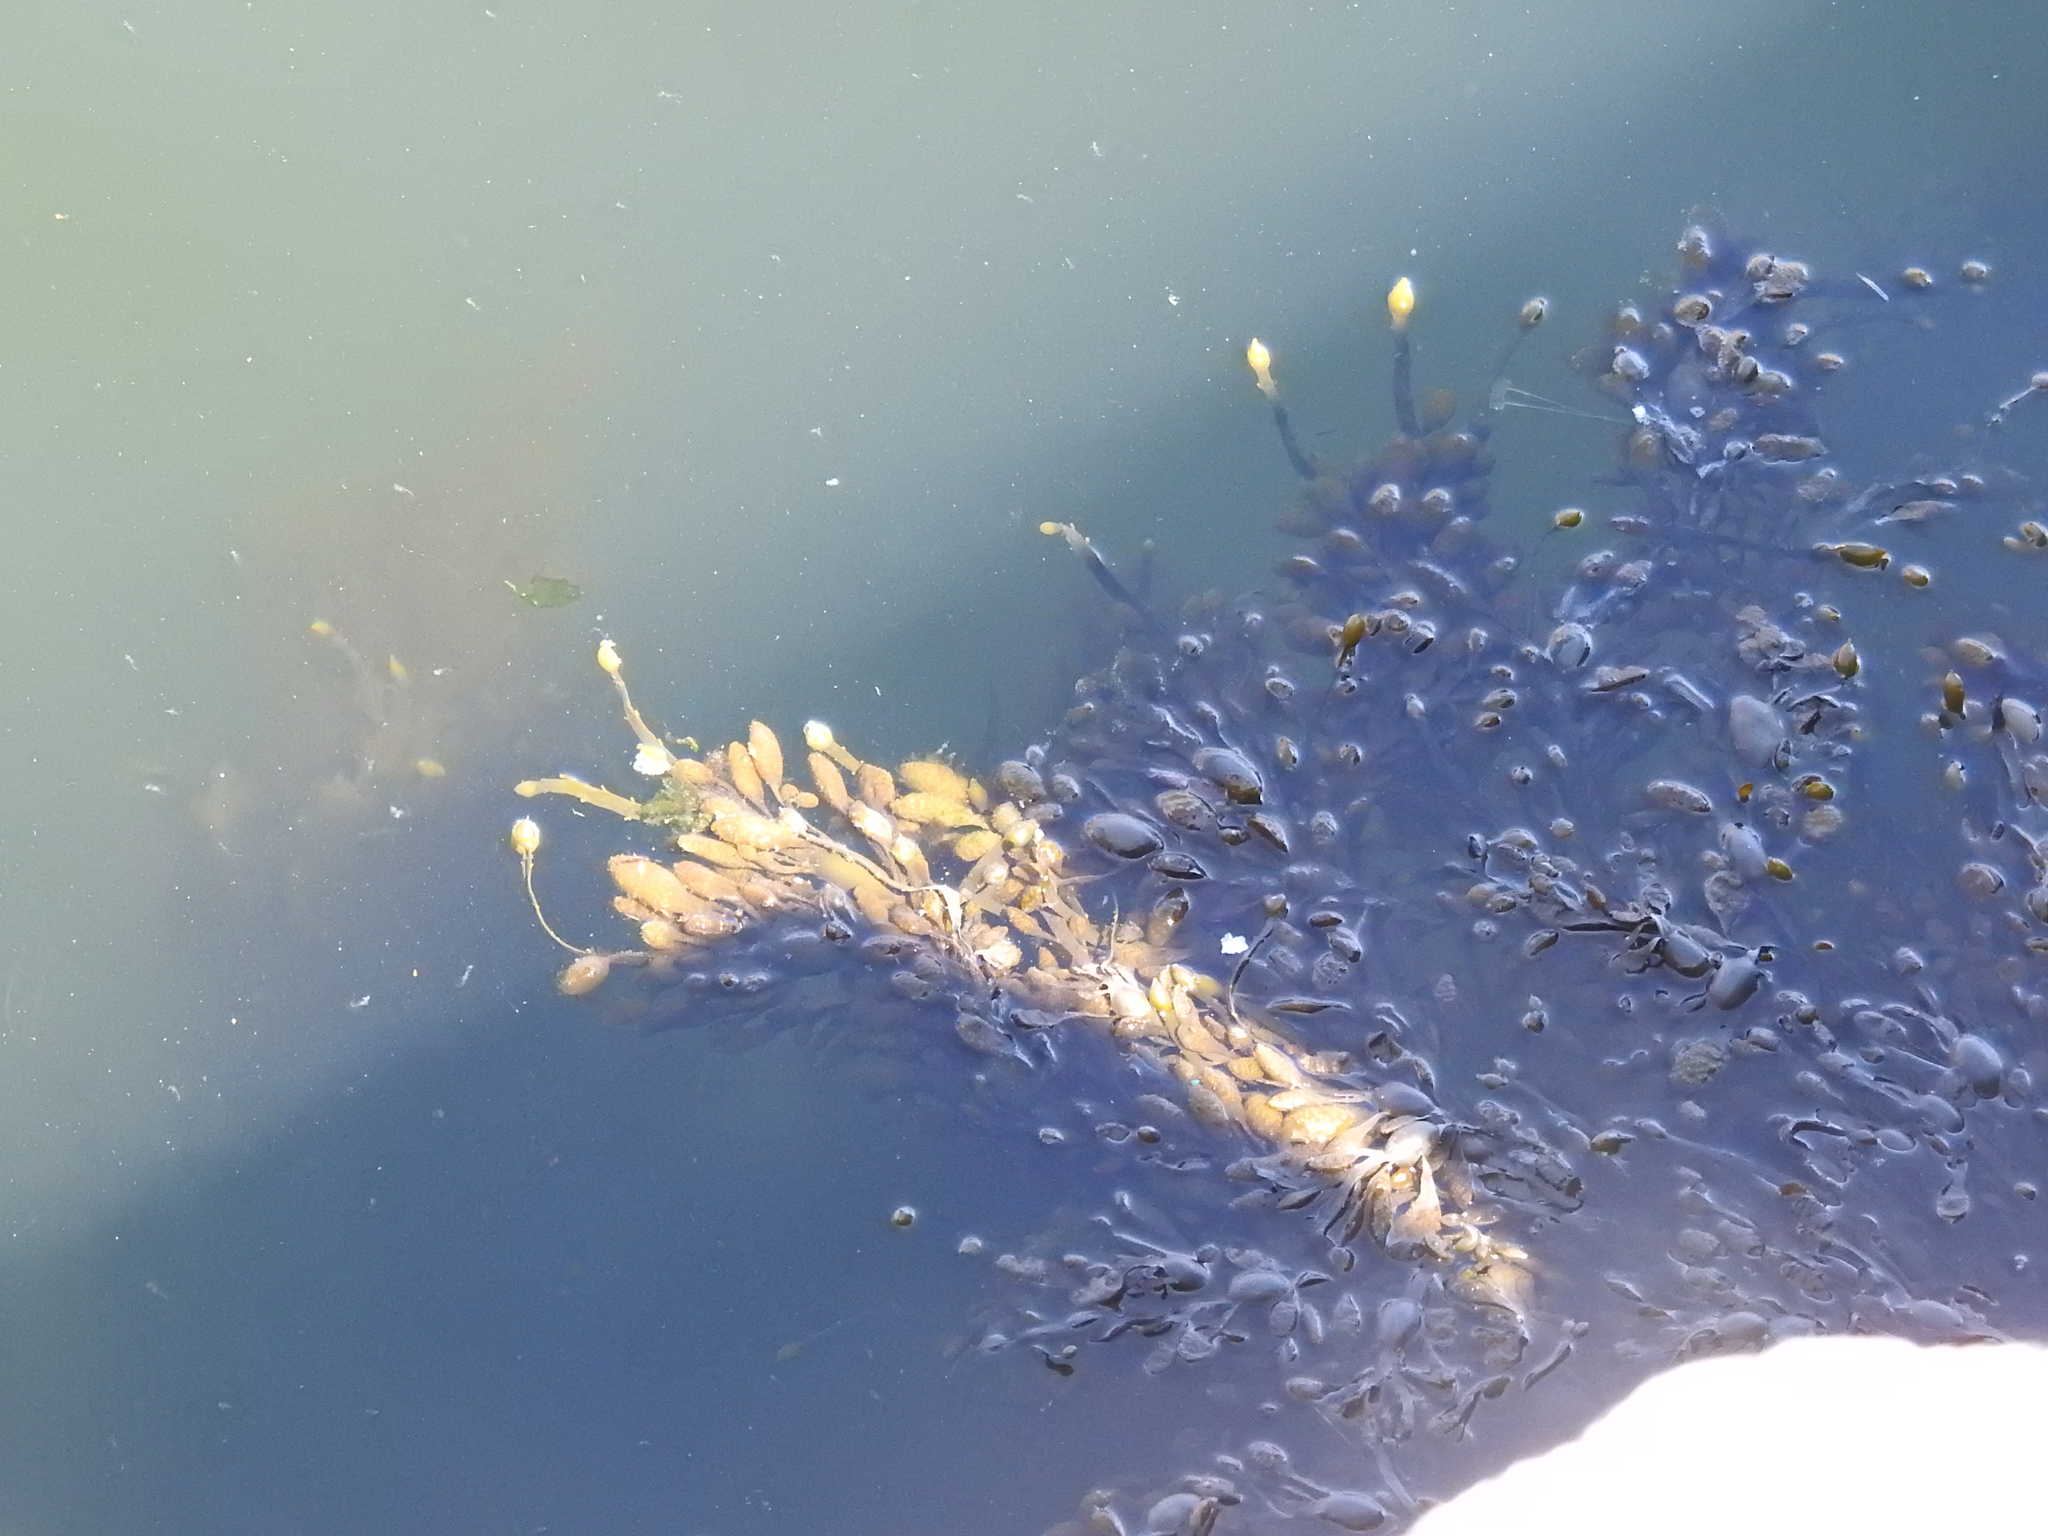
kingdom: Chromista
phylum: Ochrophyta
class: Phaeophyceae
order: Fucales
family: Fucaceae
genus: Ascophyllum
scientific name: Ascophyllum nodosum
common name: Knotted wrack
